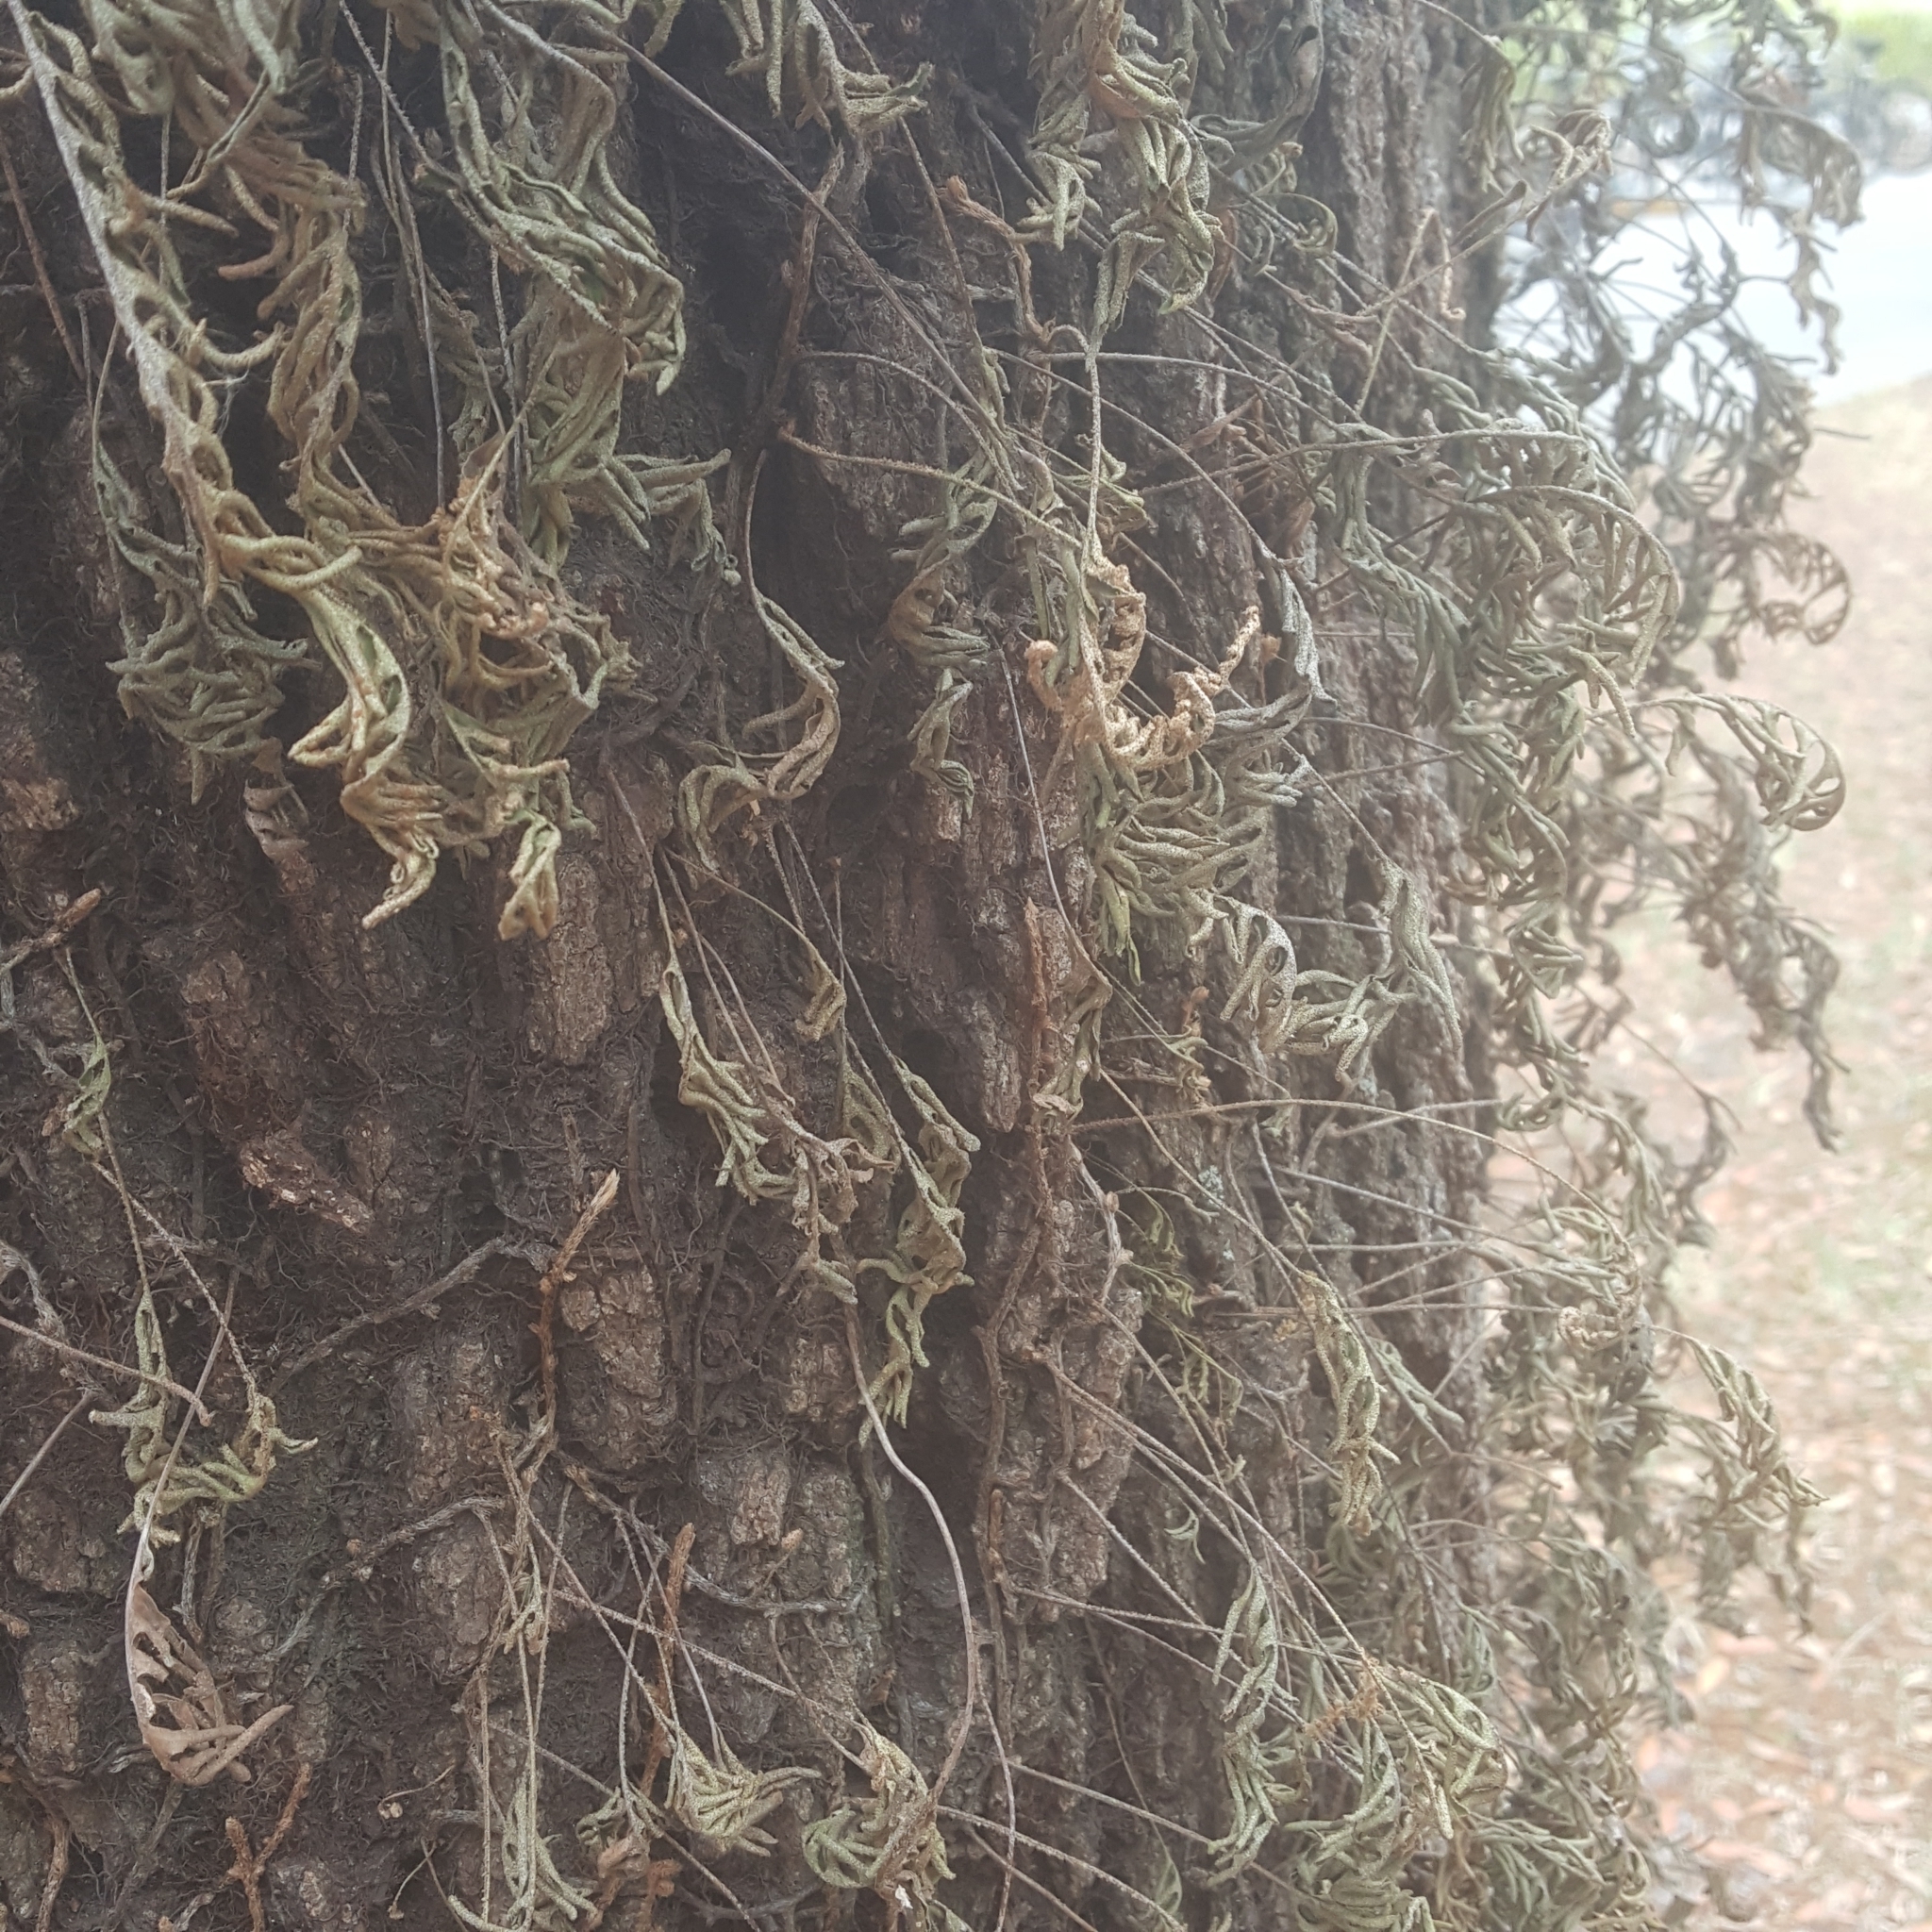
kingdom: Plantae
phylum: Tracheophyta
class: Polypodiopsida
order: Polypodiales
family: Polypodiaceae
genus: Pleopeltis
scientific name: Pleopeltis michauxiana
